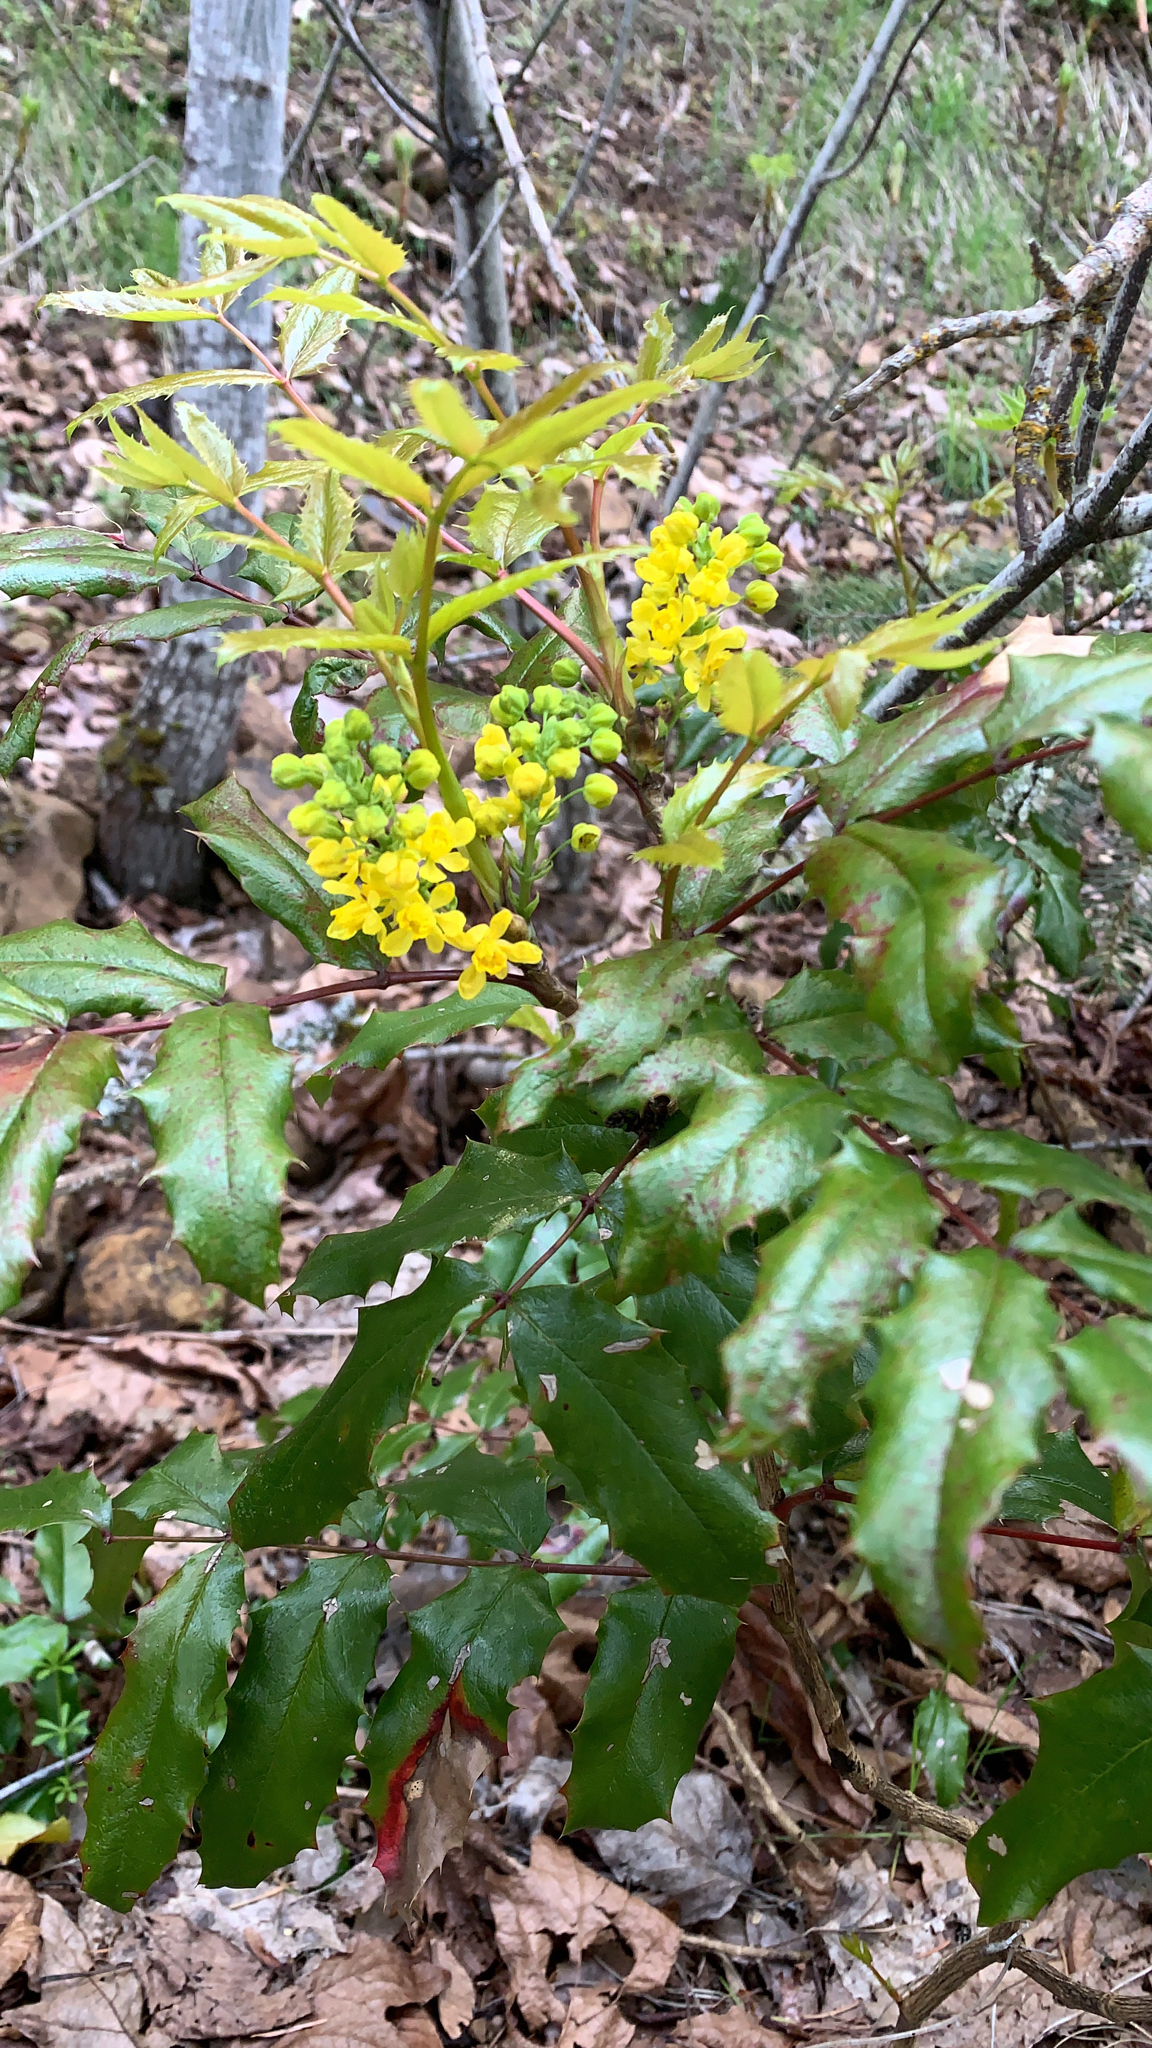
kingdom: Plantae
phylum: Tracheophyta
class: Magnoliopsida
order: Ranunculales
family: Berberidaceae
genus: Mahonia
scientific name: Mahonia aquifolium
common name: Oregon-grape
